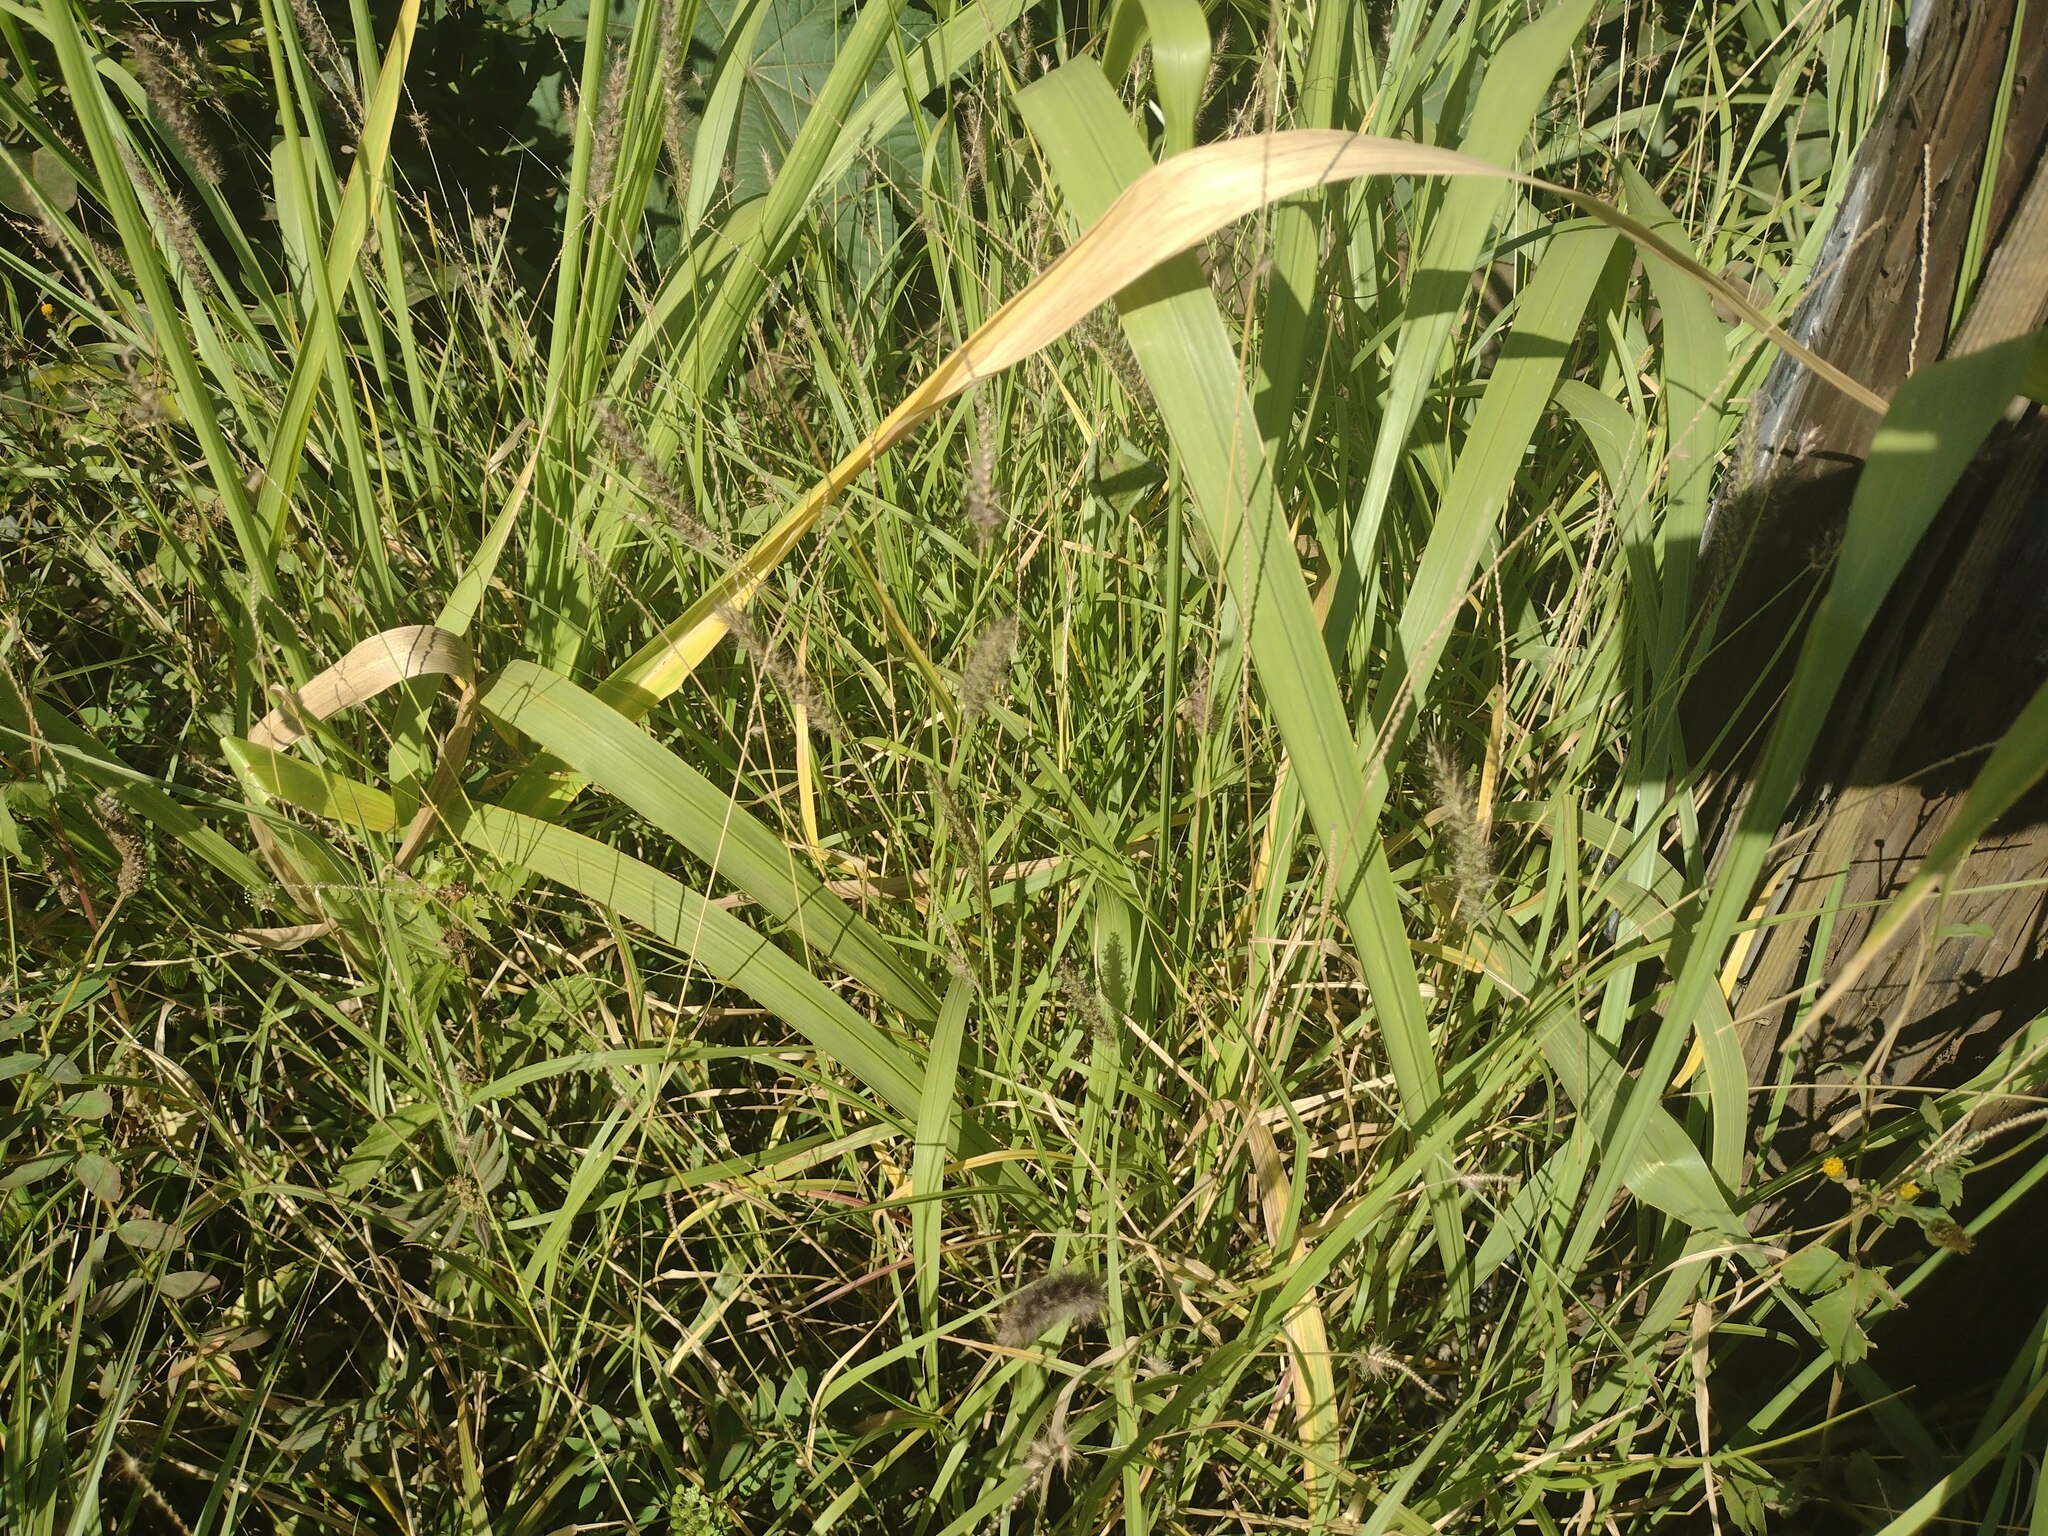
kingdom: Plantae
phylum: Tracheophyta
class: Liliopsida
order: Poales
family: Poaceae
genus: Cenchrus
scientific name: Cenchrus ciliaris
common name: Buffelgrass
